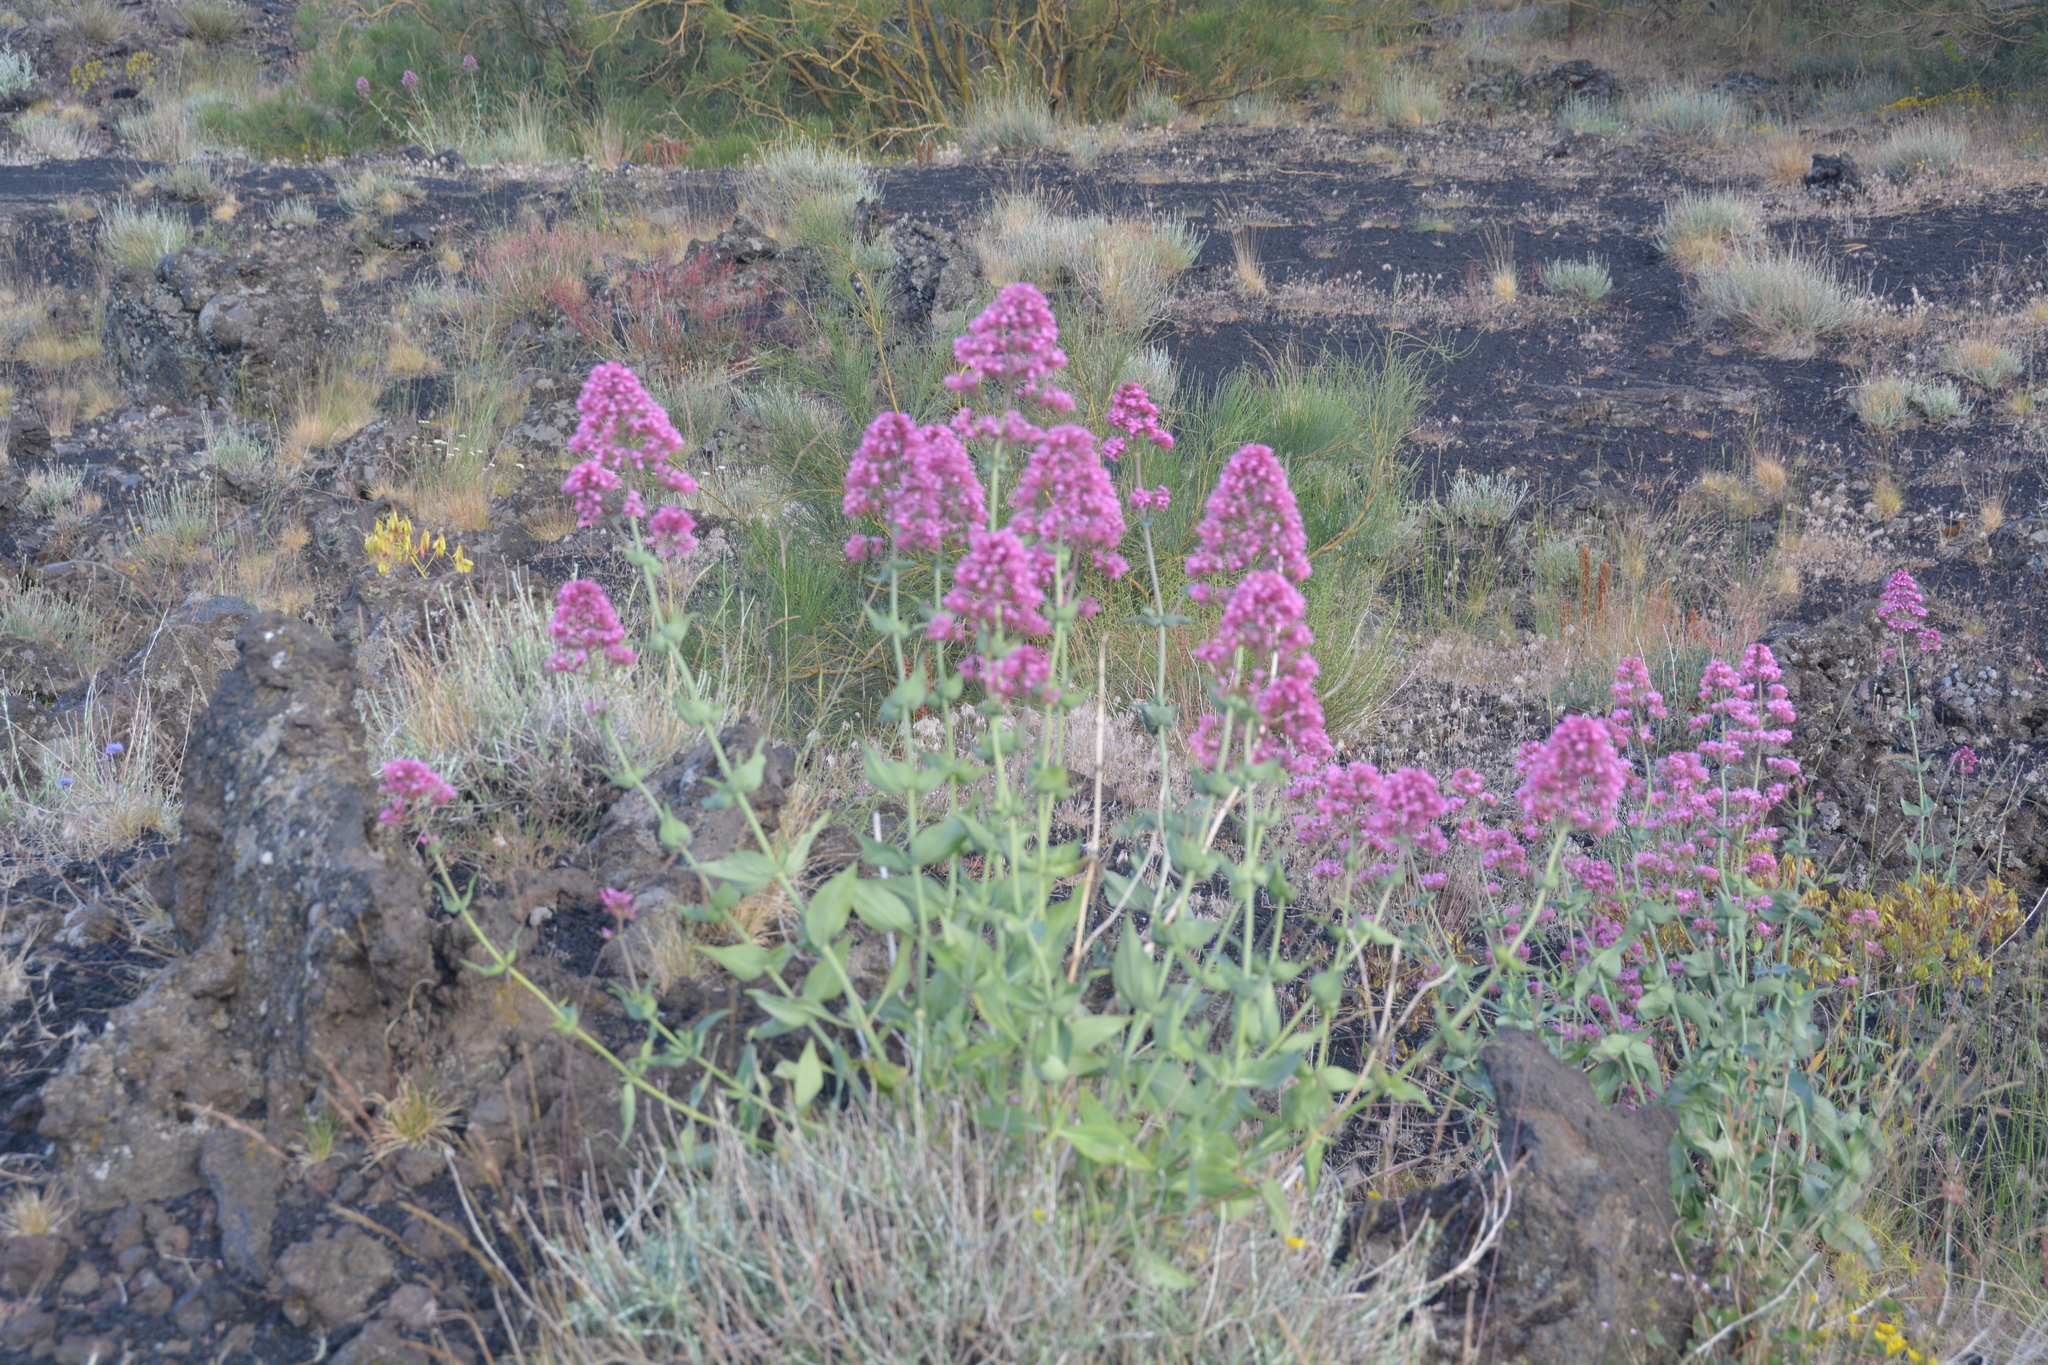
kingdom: Plantae
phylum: Tracheophyta
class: Magnoliopsida
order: Dipsacales
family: Caprifoliaceae
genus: Centranthus
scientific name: Centranthus ruber
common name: Red valerian
